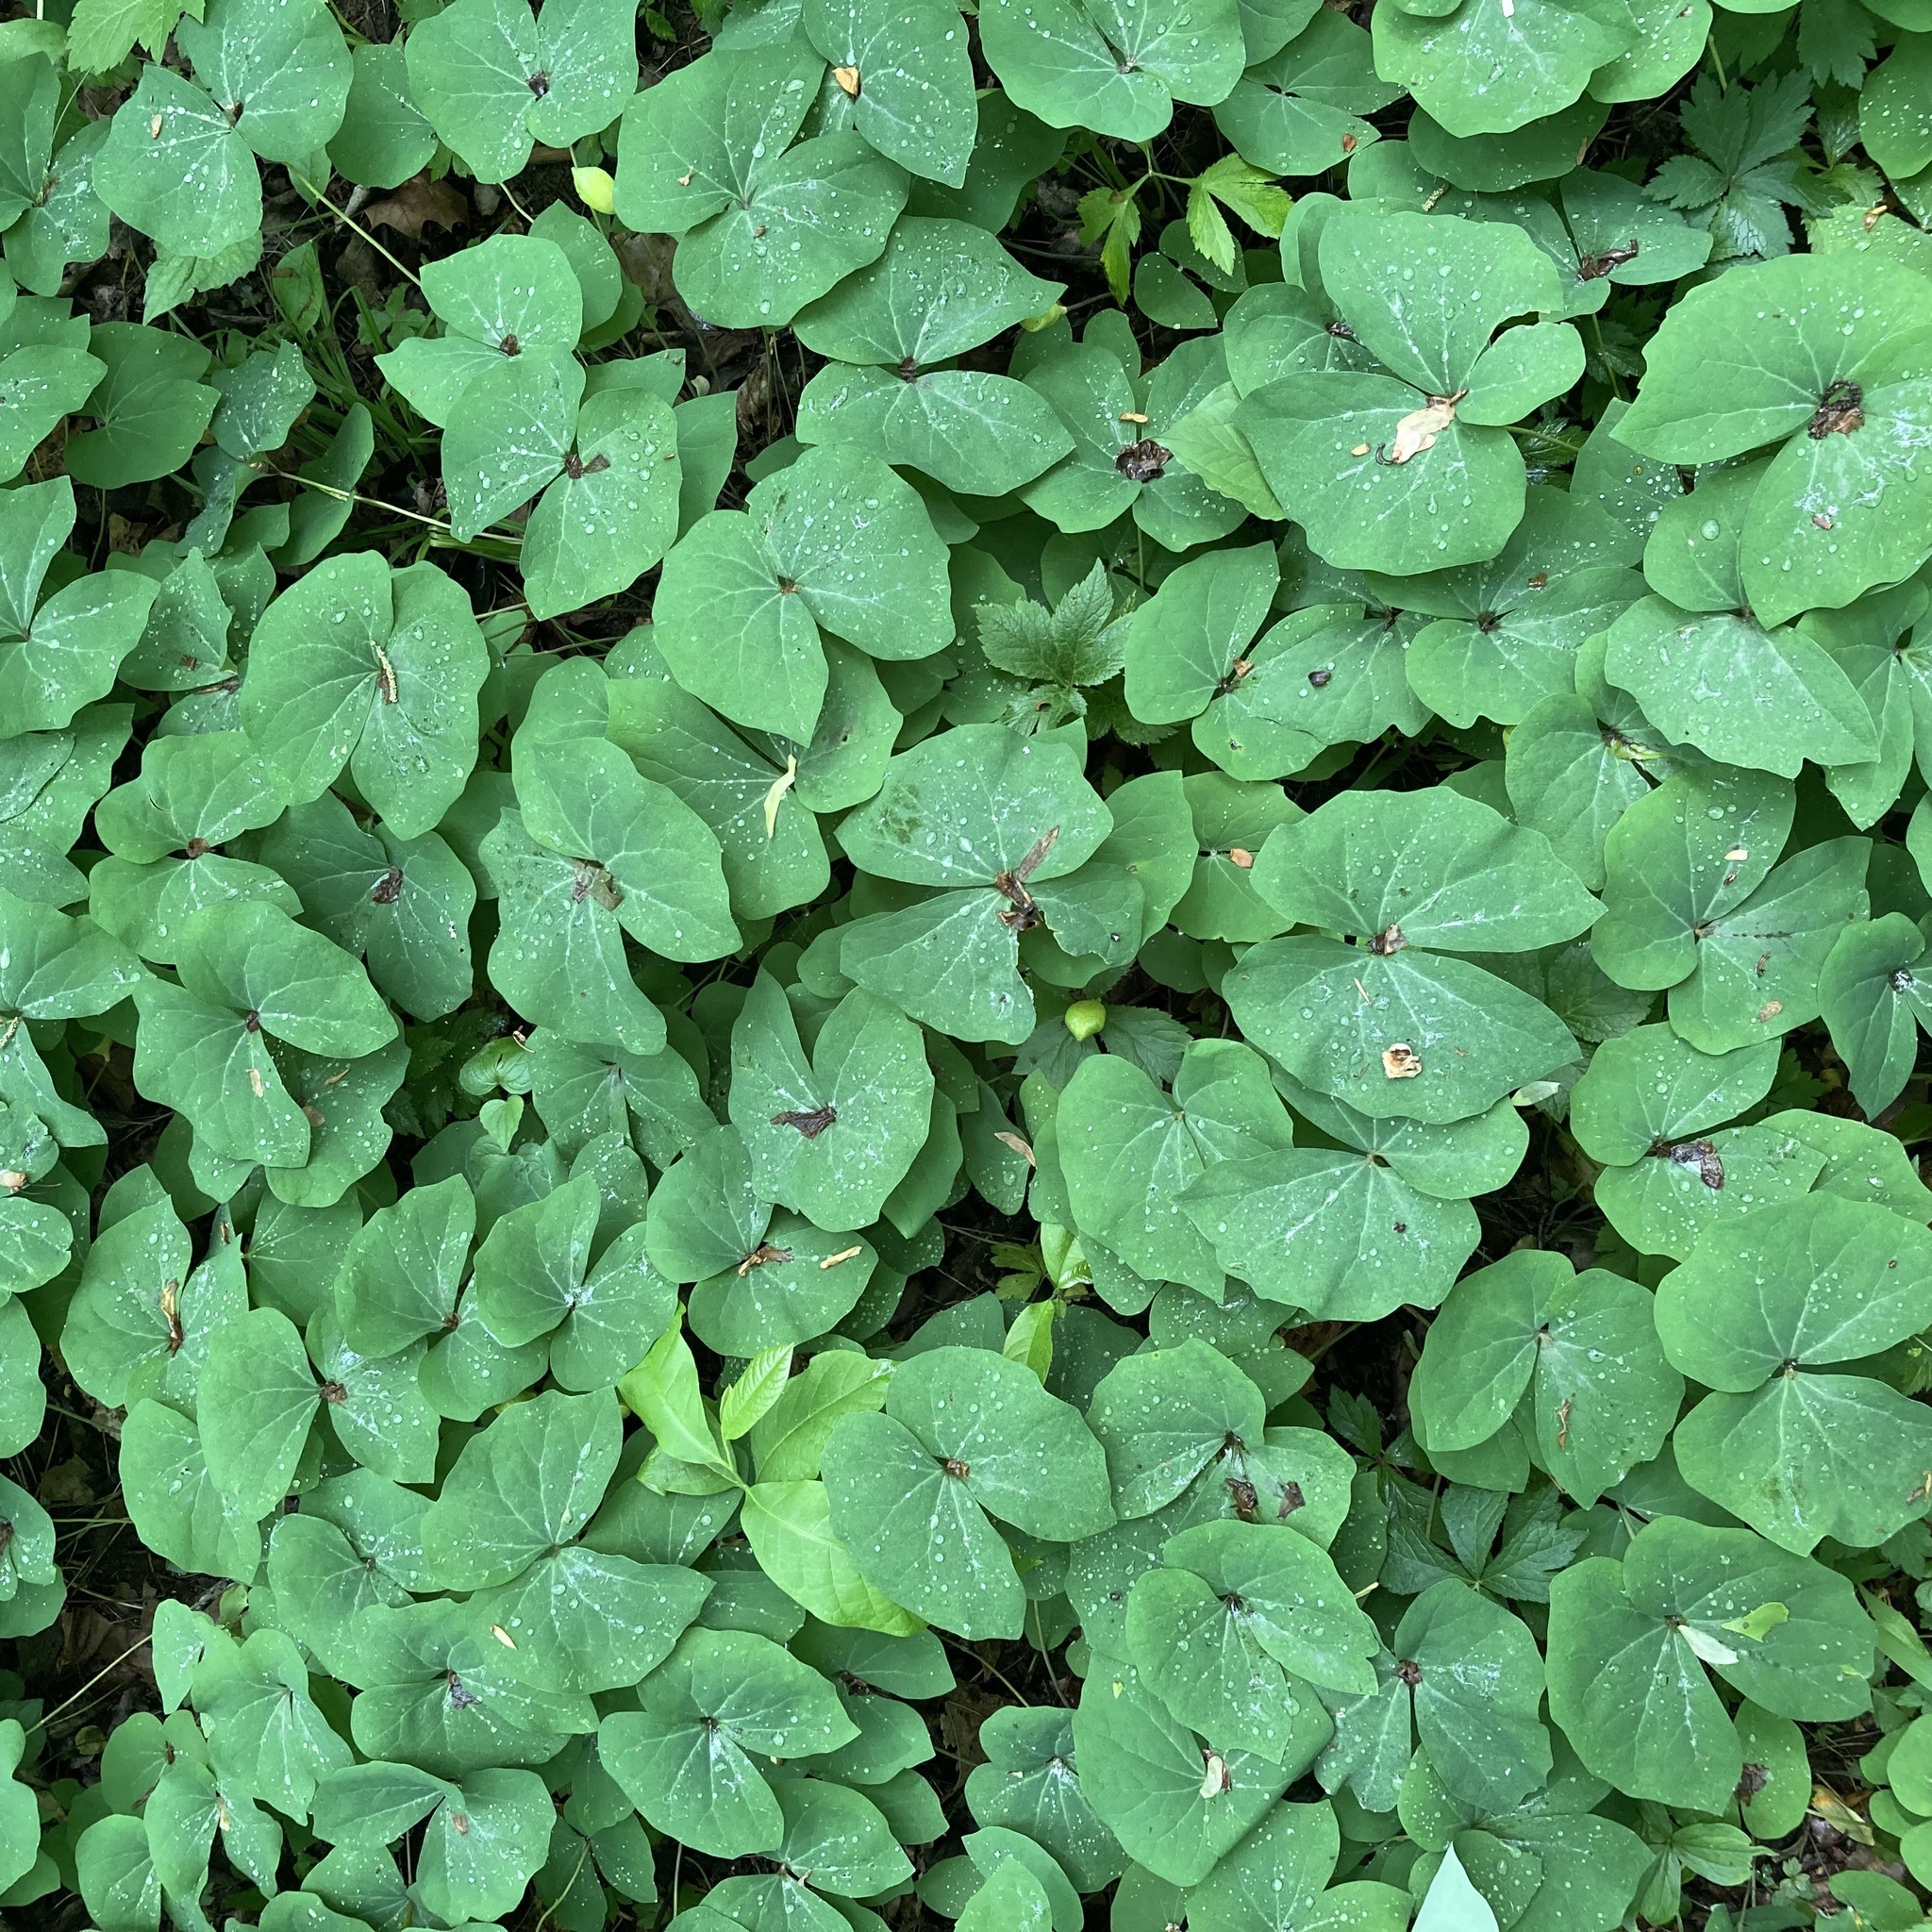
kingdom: Plantae
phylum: Tracheophyta
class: Magnoliopsida
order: Ranunculales
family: Berberidaceae
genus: Jeffersonia
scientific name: Jeffersonia diphylla
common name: Rheumatism-root
